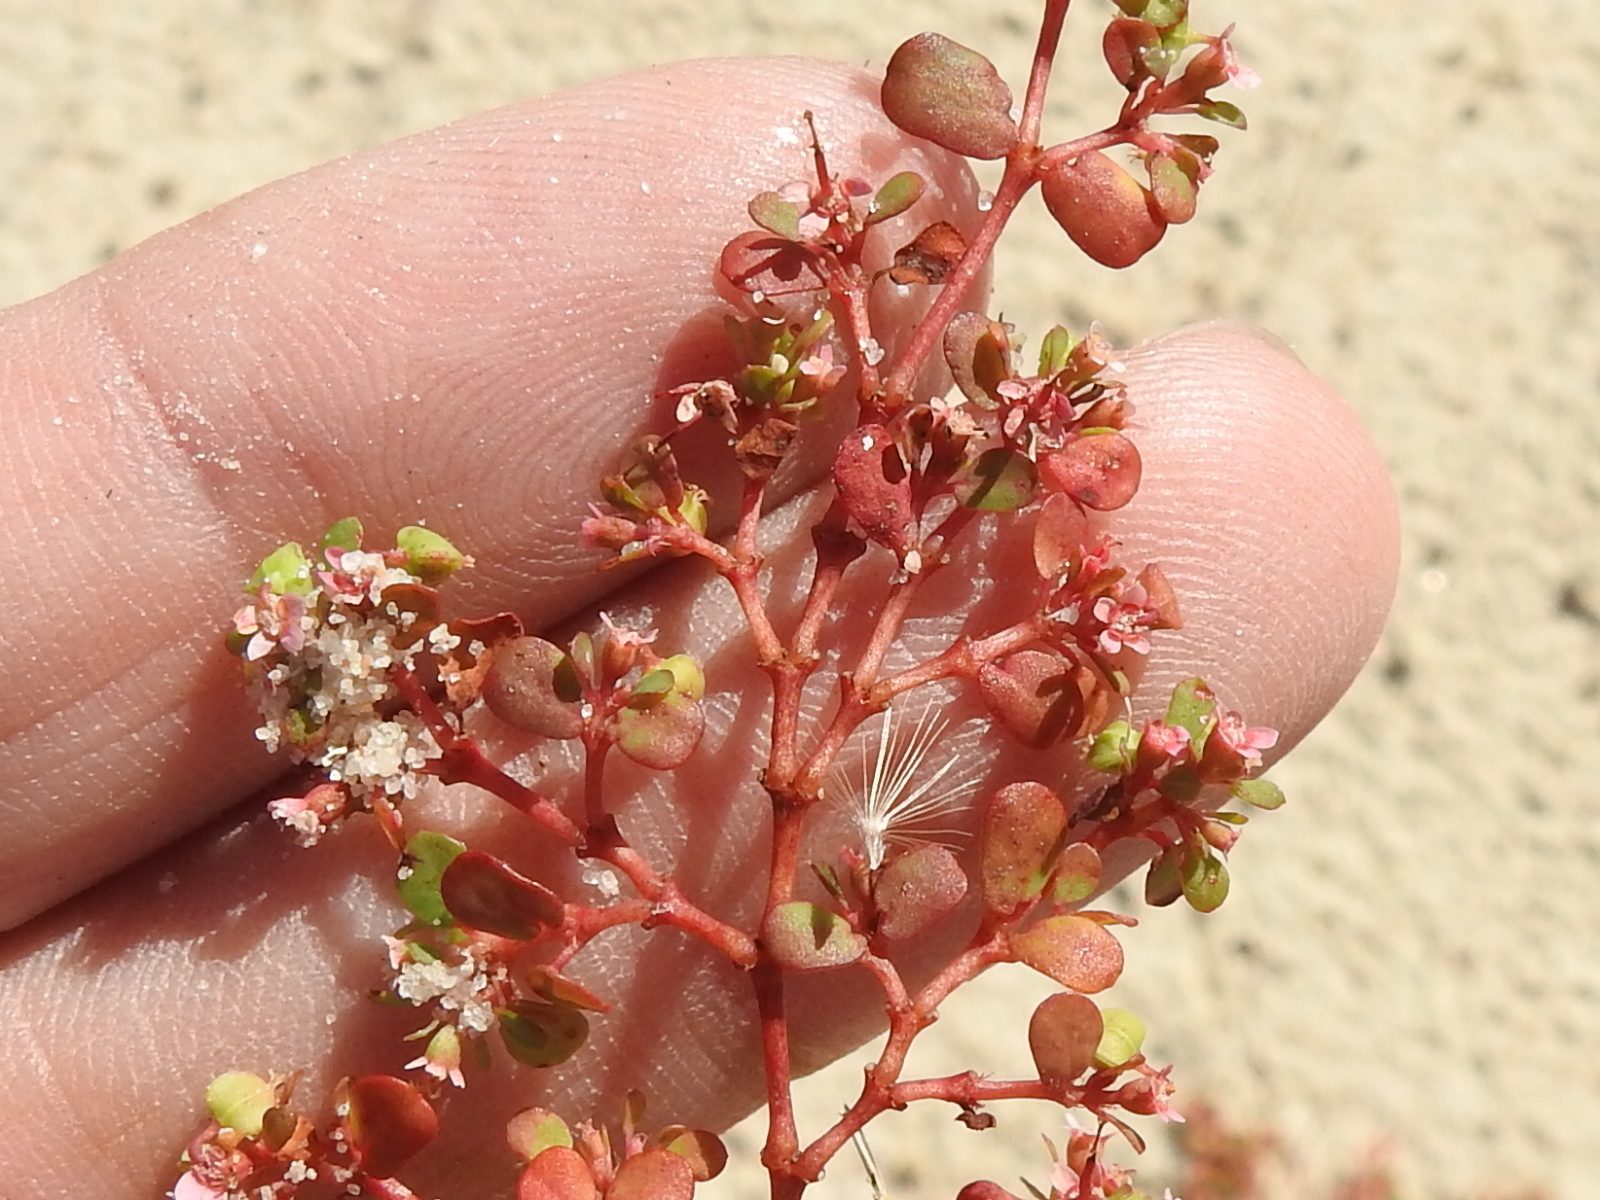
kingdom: Plantae
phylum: Tracheophyta
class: Magnoliopsida
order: Malpighiales
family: Euphorbiaceae
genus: Euphorbia
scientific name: Euphorbia cordifolia
